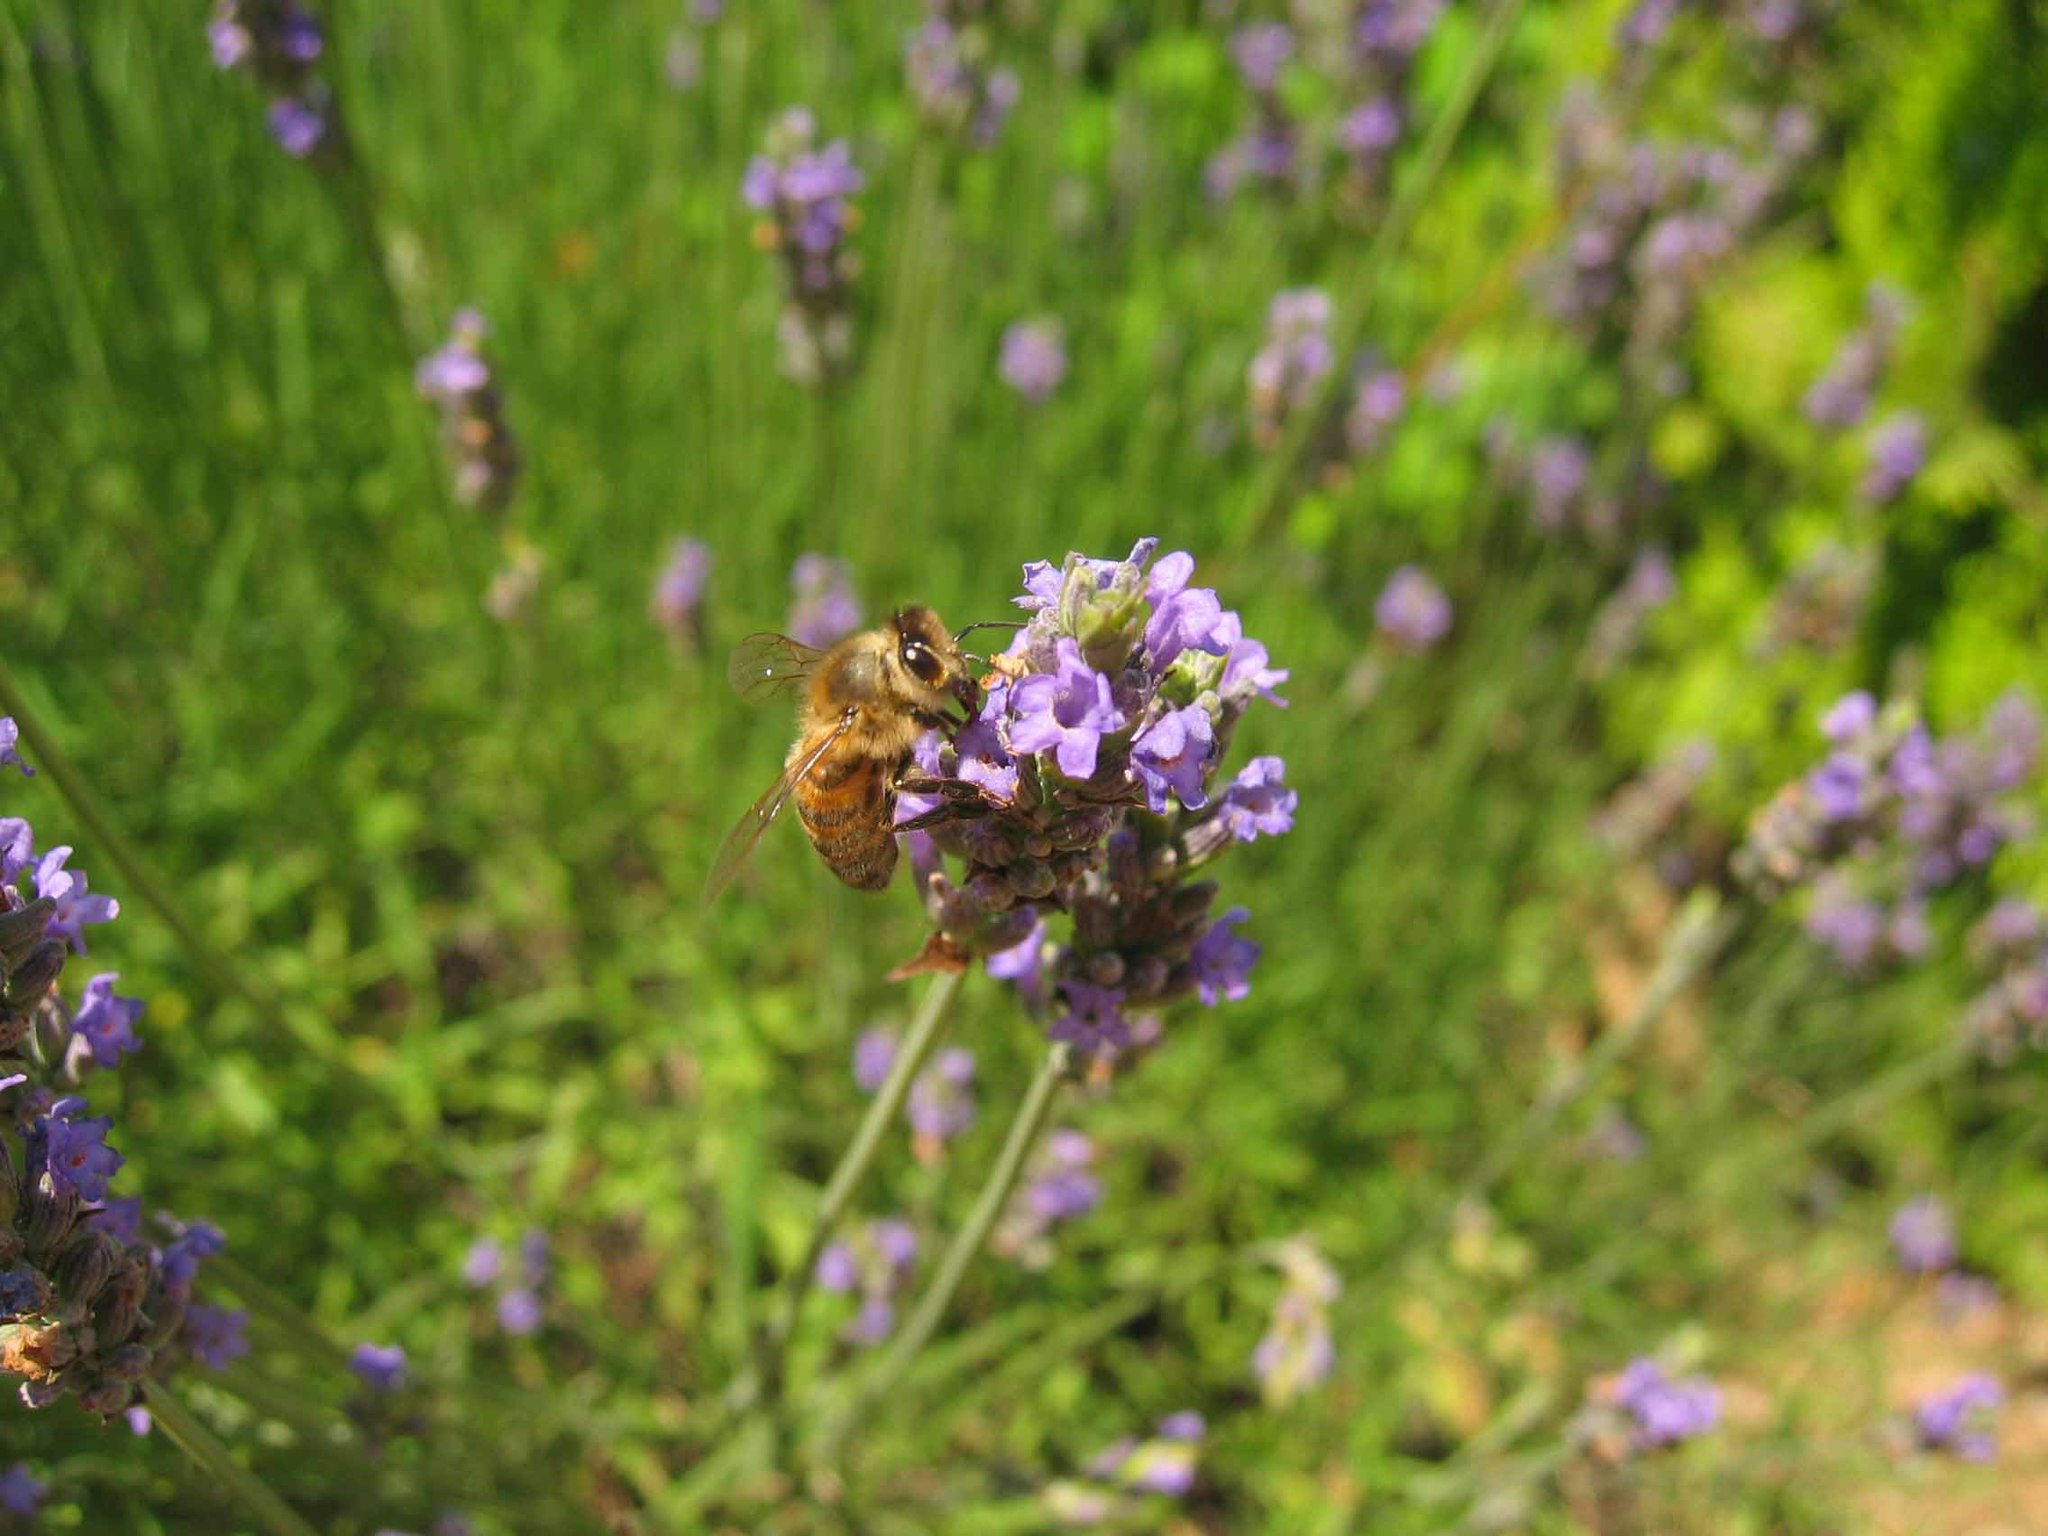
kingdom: Animalia
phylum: Arthropoda
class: Insecta
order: Hymenoptera
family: Apidae
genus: Apis
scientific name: Apis mellifera
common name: Honey bee
